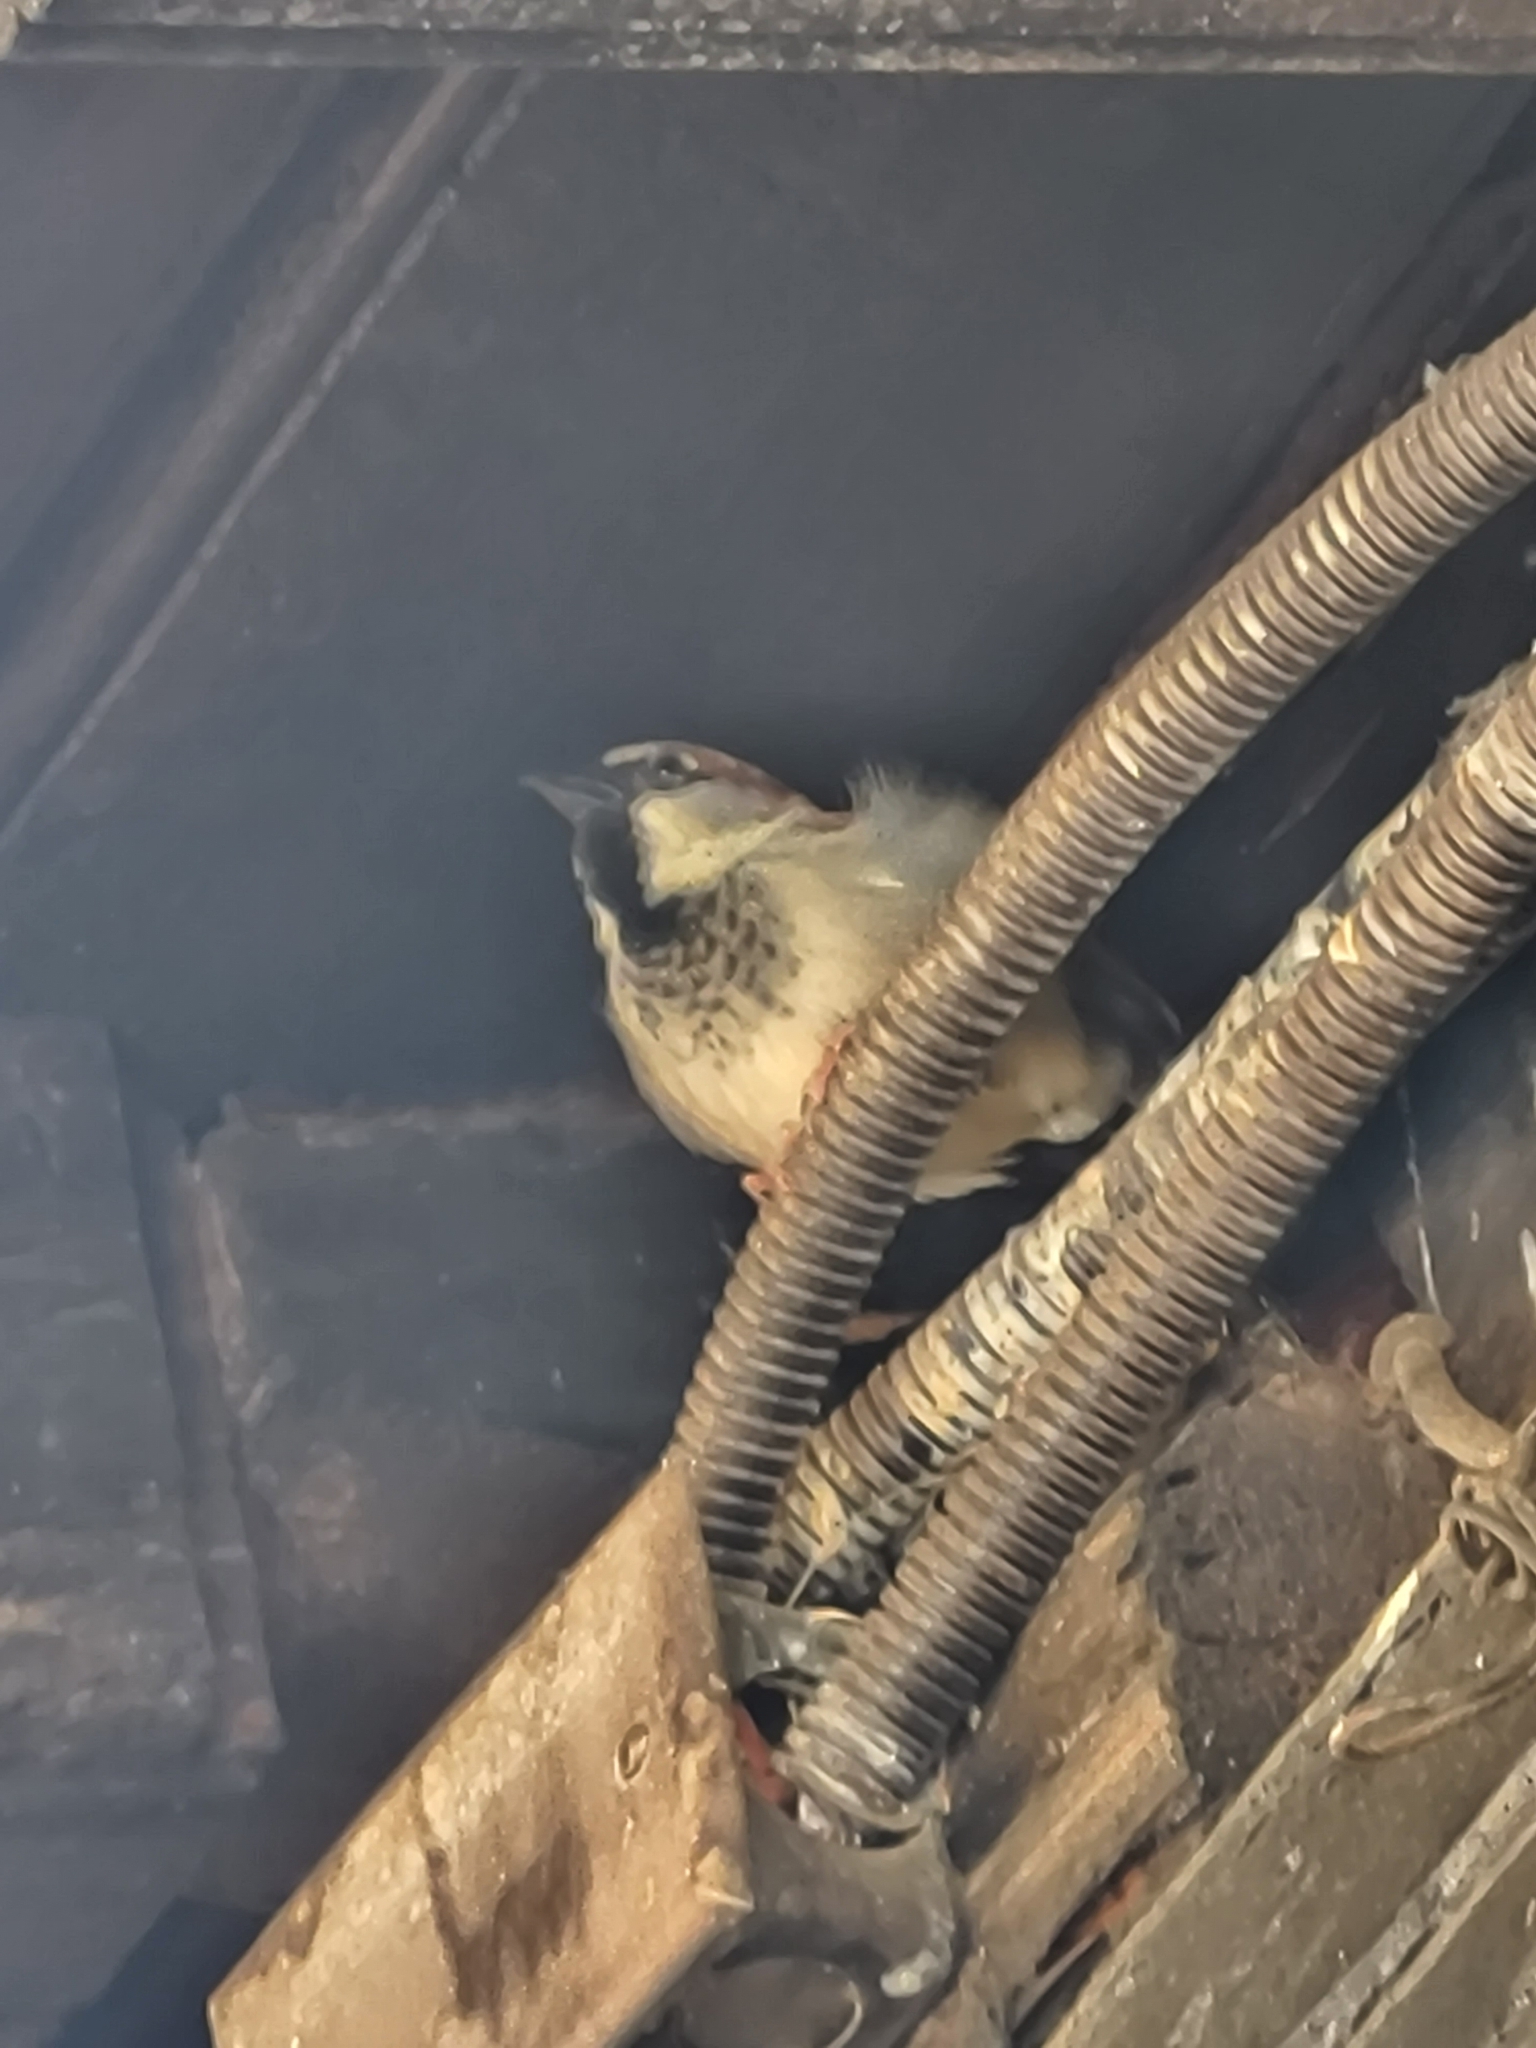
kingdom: Animalia
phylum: Chordata
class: Aves
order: Passeriformes
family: Passeridae
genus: Passer
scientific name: Passer domesticus
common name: House sparrow
